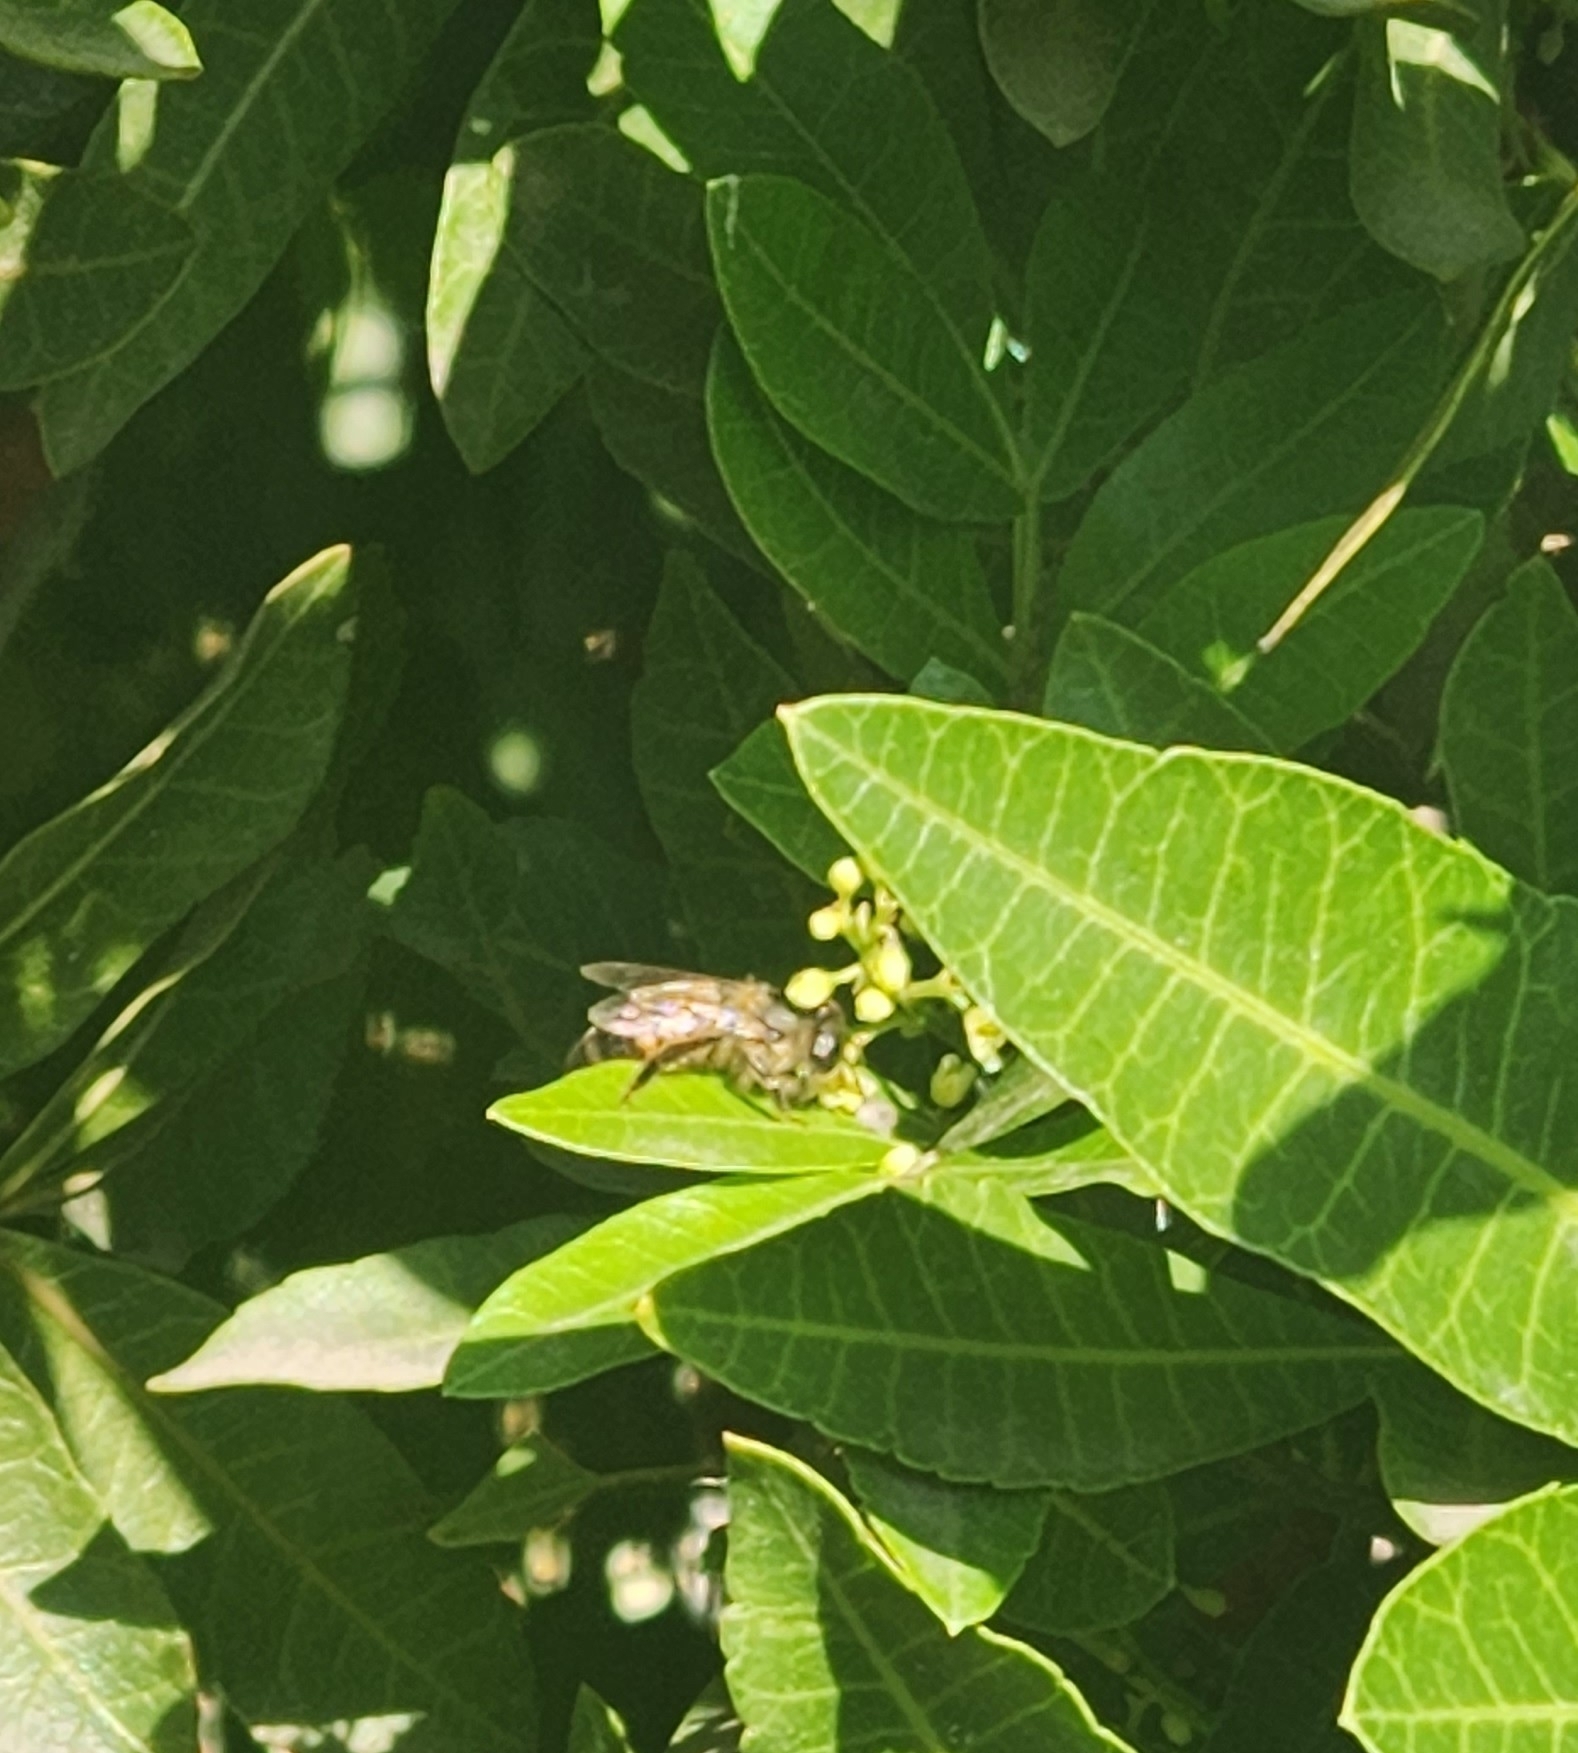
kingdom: Animalia
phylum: Arthropoda
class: Insecta
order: Hymenoptera
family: Apidae
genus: Apis
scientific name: Apis mellifera
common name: Honey bee
